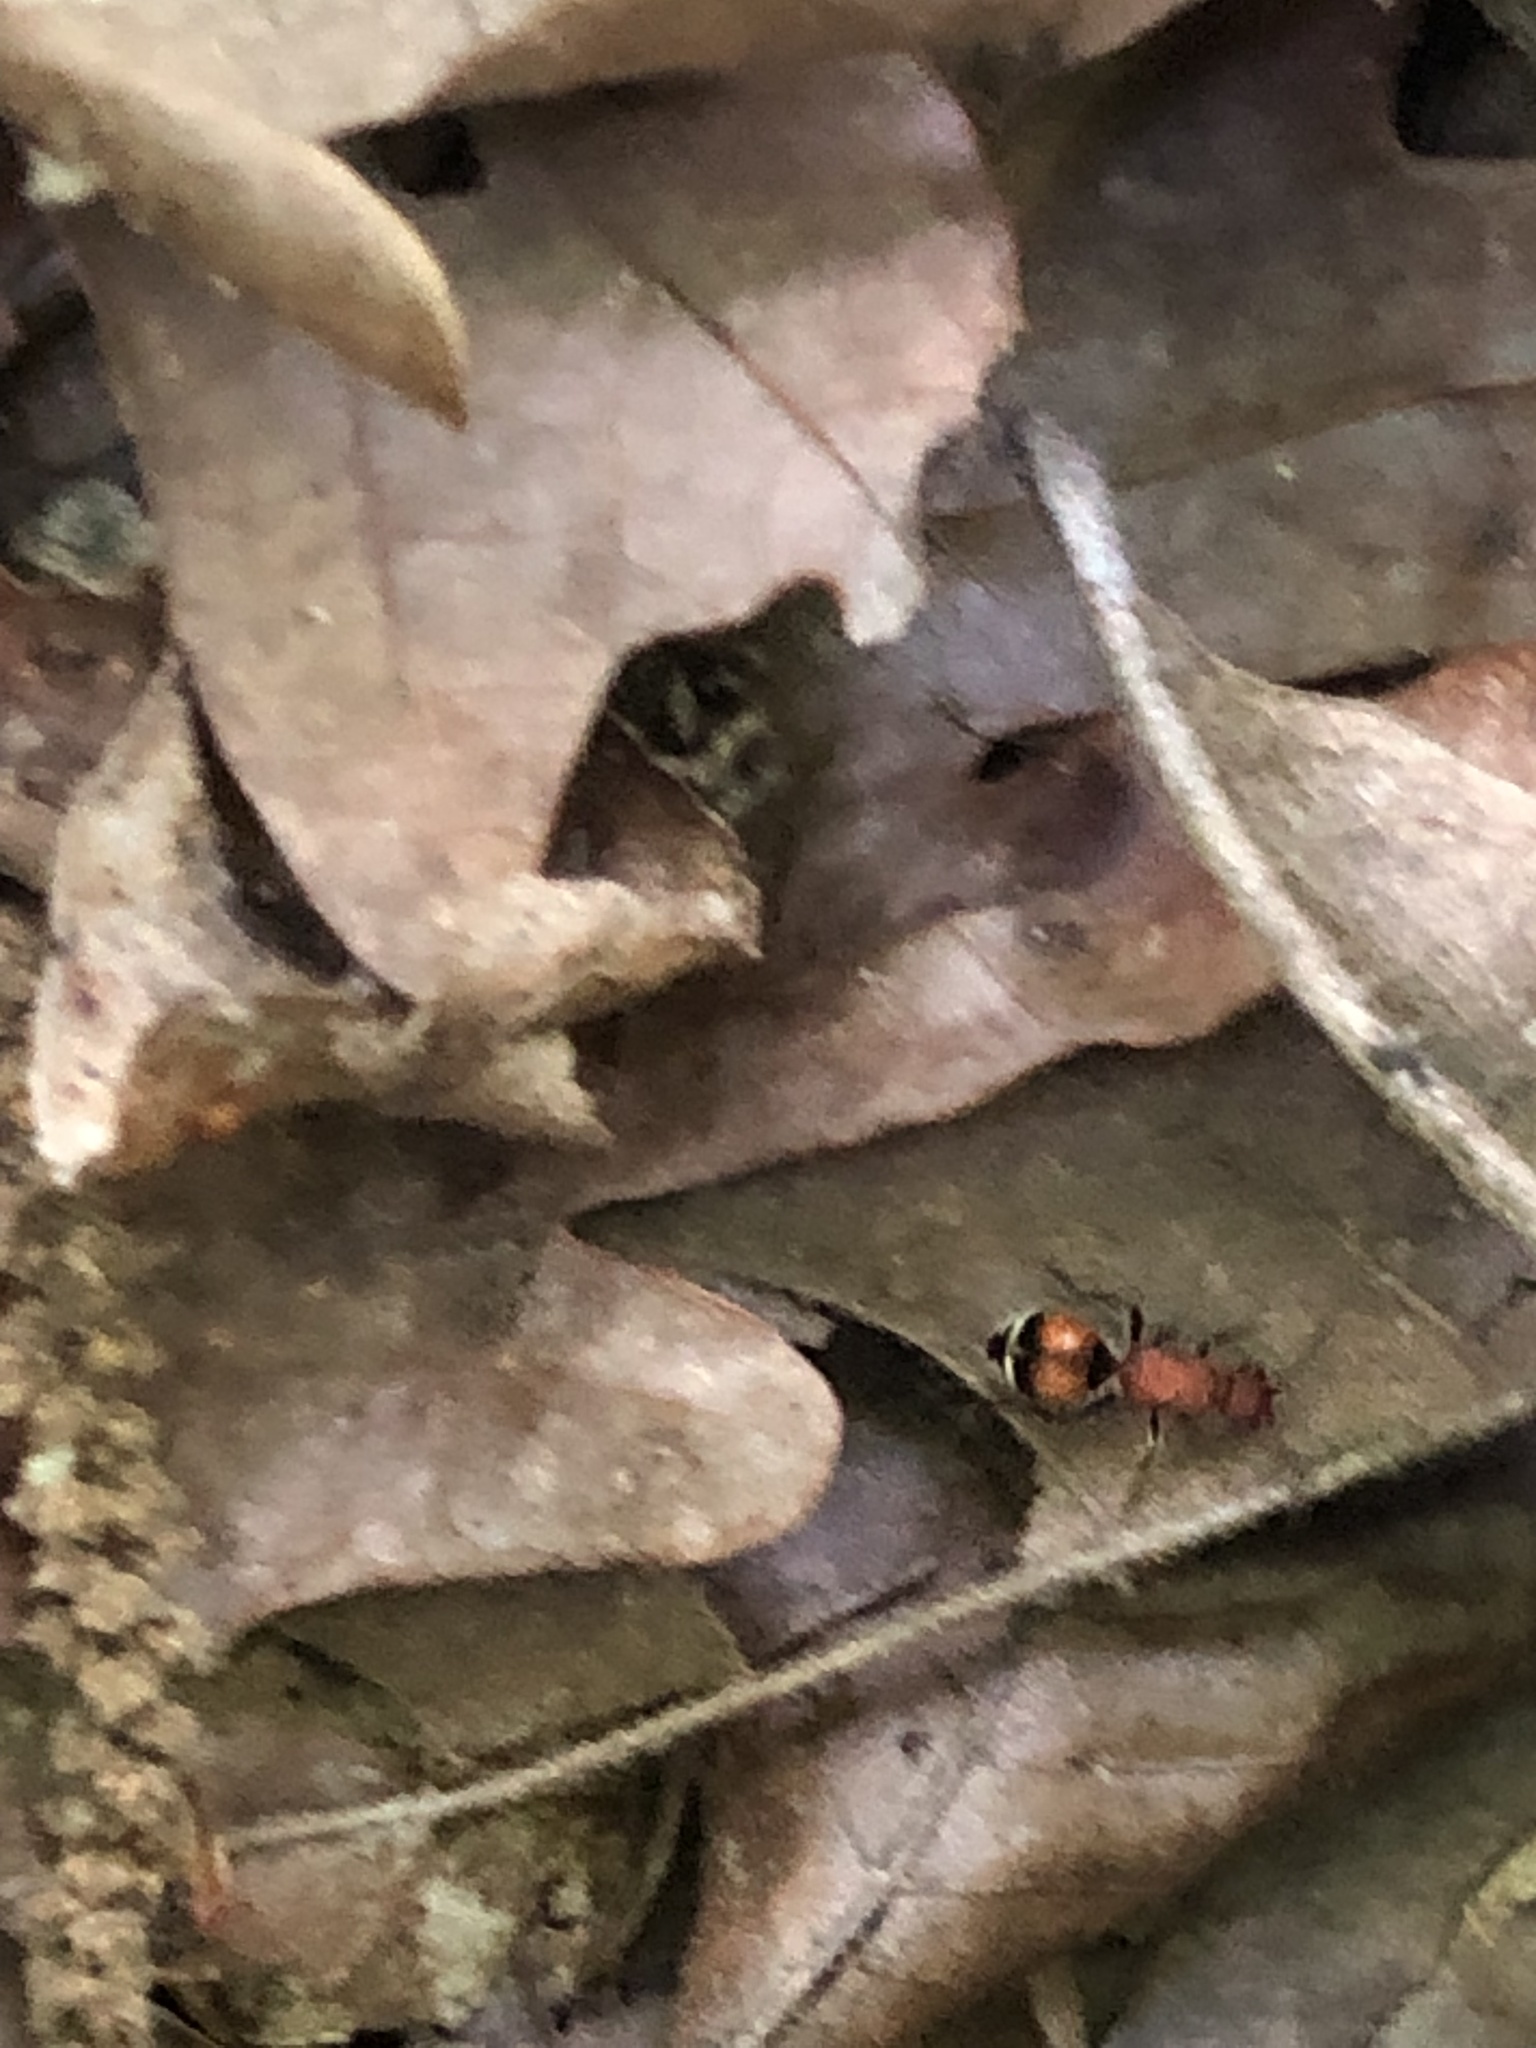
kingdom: Animalia
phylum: Arthropoda
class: Insecta
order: Hymenoptera
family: Mutillidae
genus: Timulla
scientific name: Timulla
